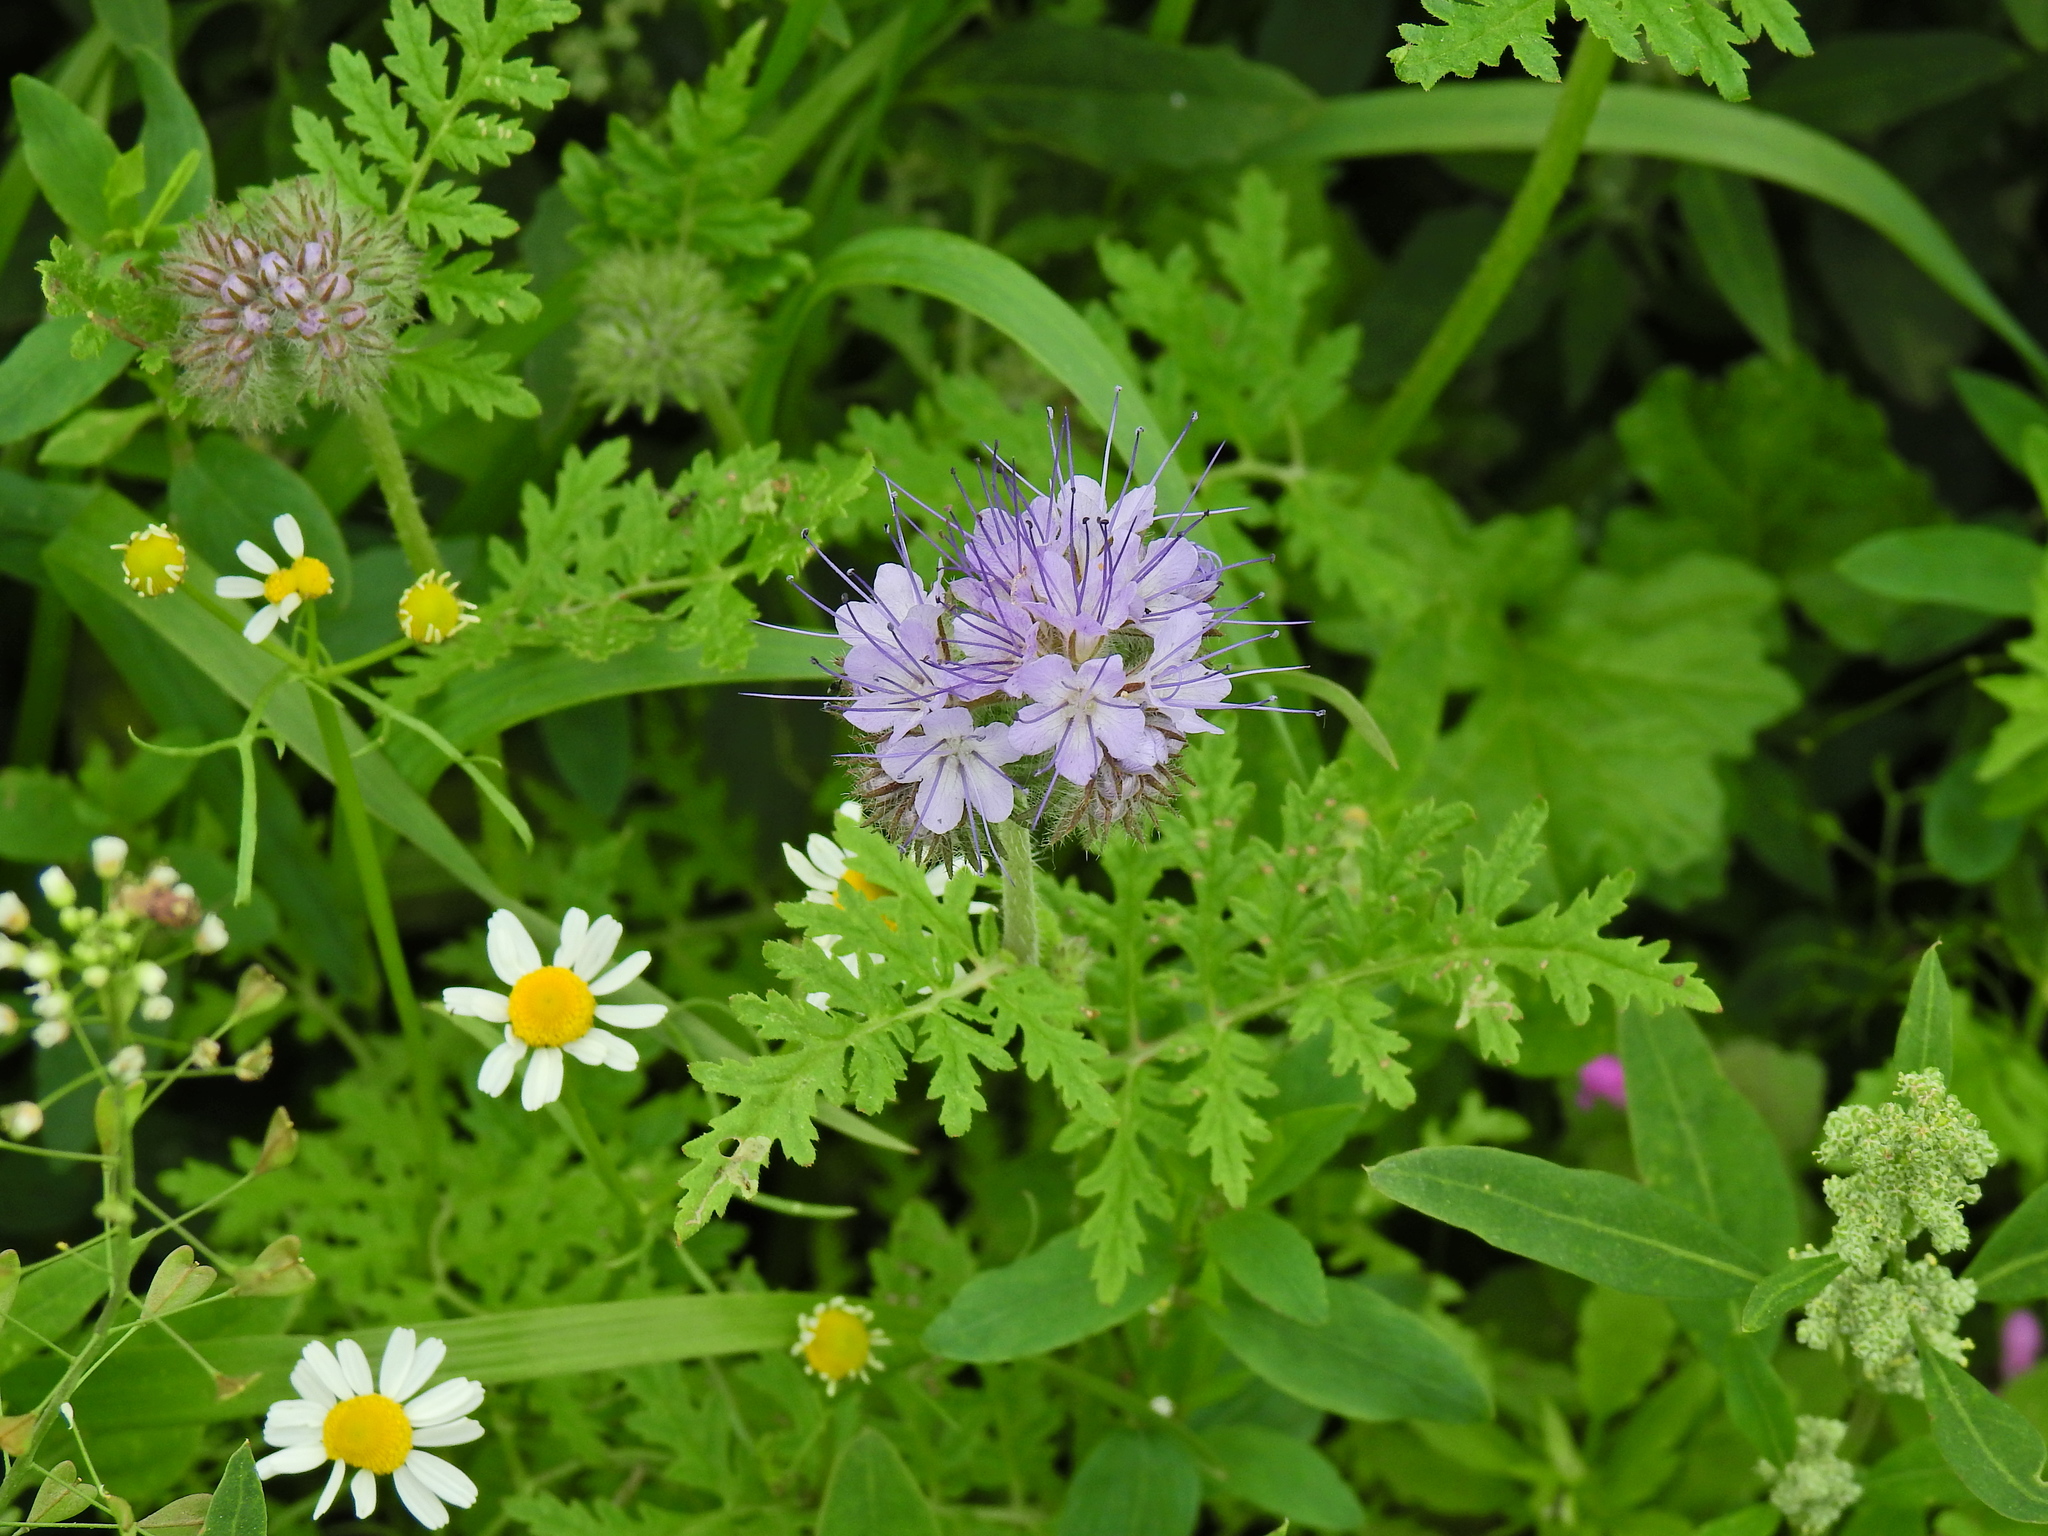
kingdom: Plantae
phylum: Tracheophyta
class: Magnoliopsida
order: Boraginales
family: Hydrophyllaceae
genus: Phacelia
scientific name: Phacelia tanacetifolia
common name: Phacelia
